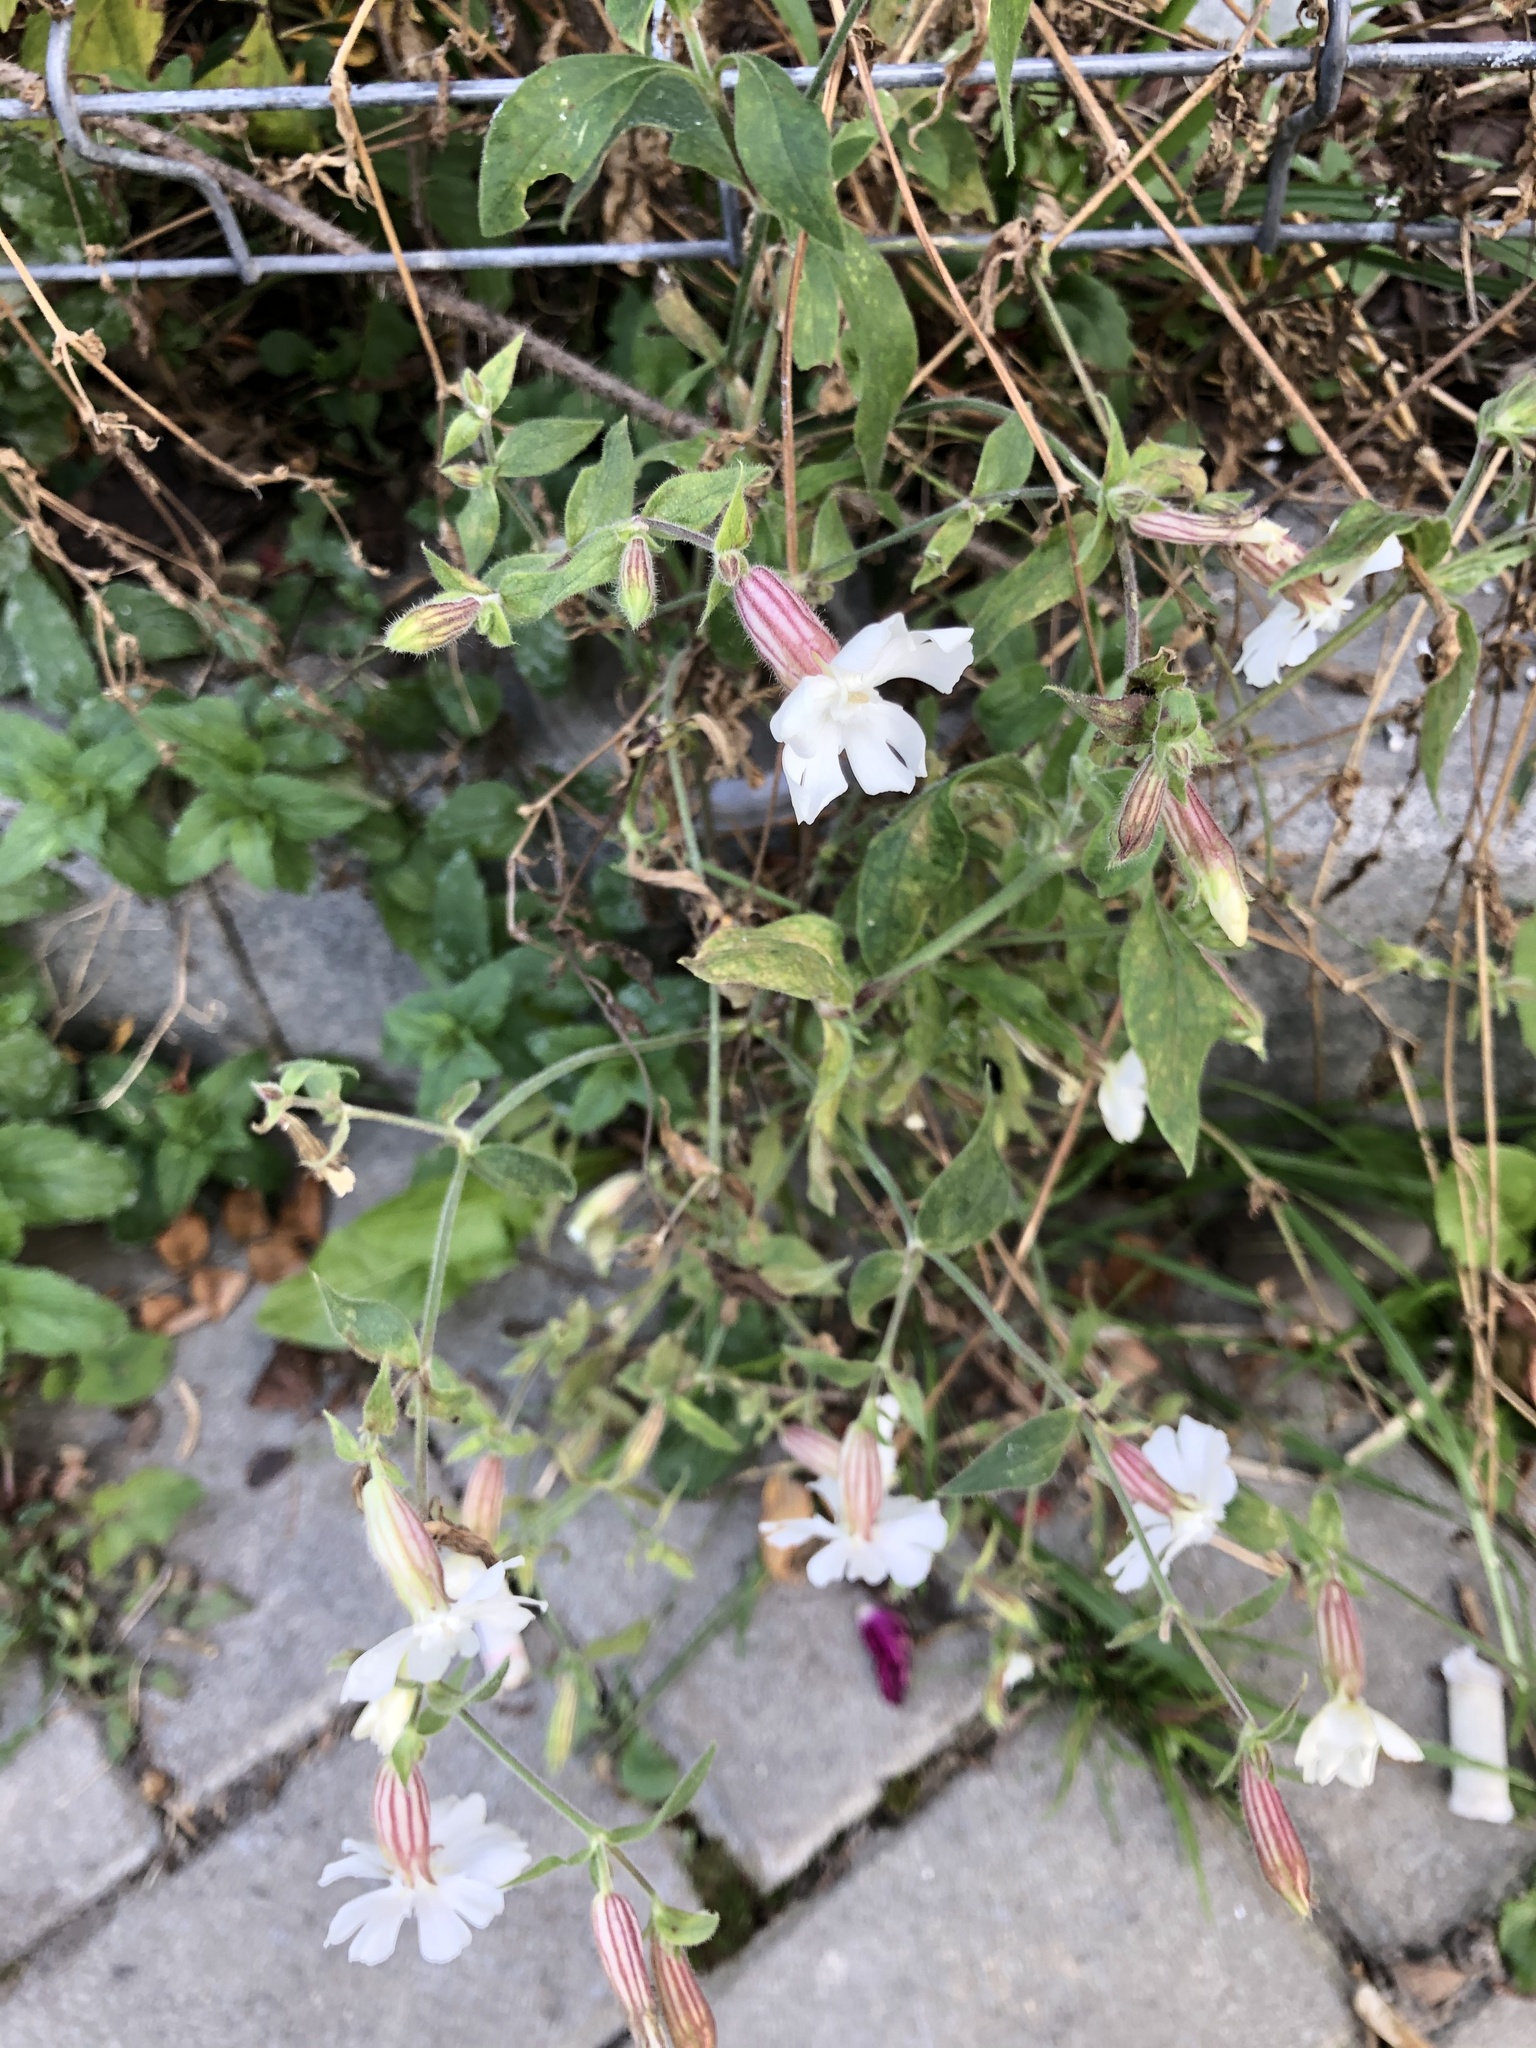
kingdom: Plantae
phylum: Tracheophyta
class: Magnoliopsida
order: Caryophyllales
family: Caryophyllaceae
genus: Silene
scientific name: Silene latifolia
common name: White campion
